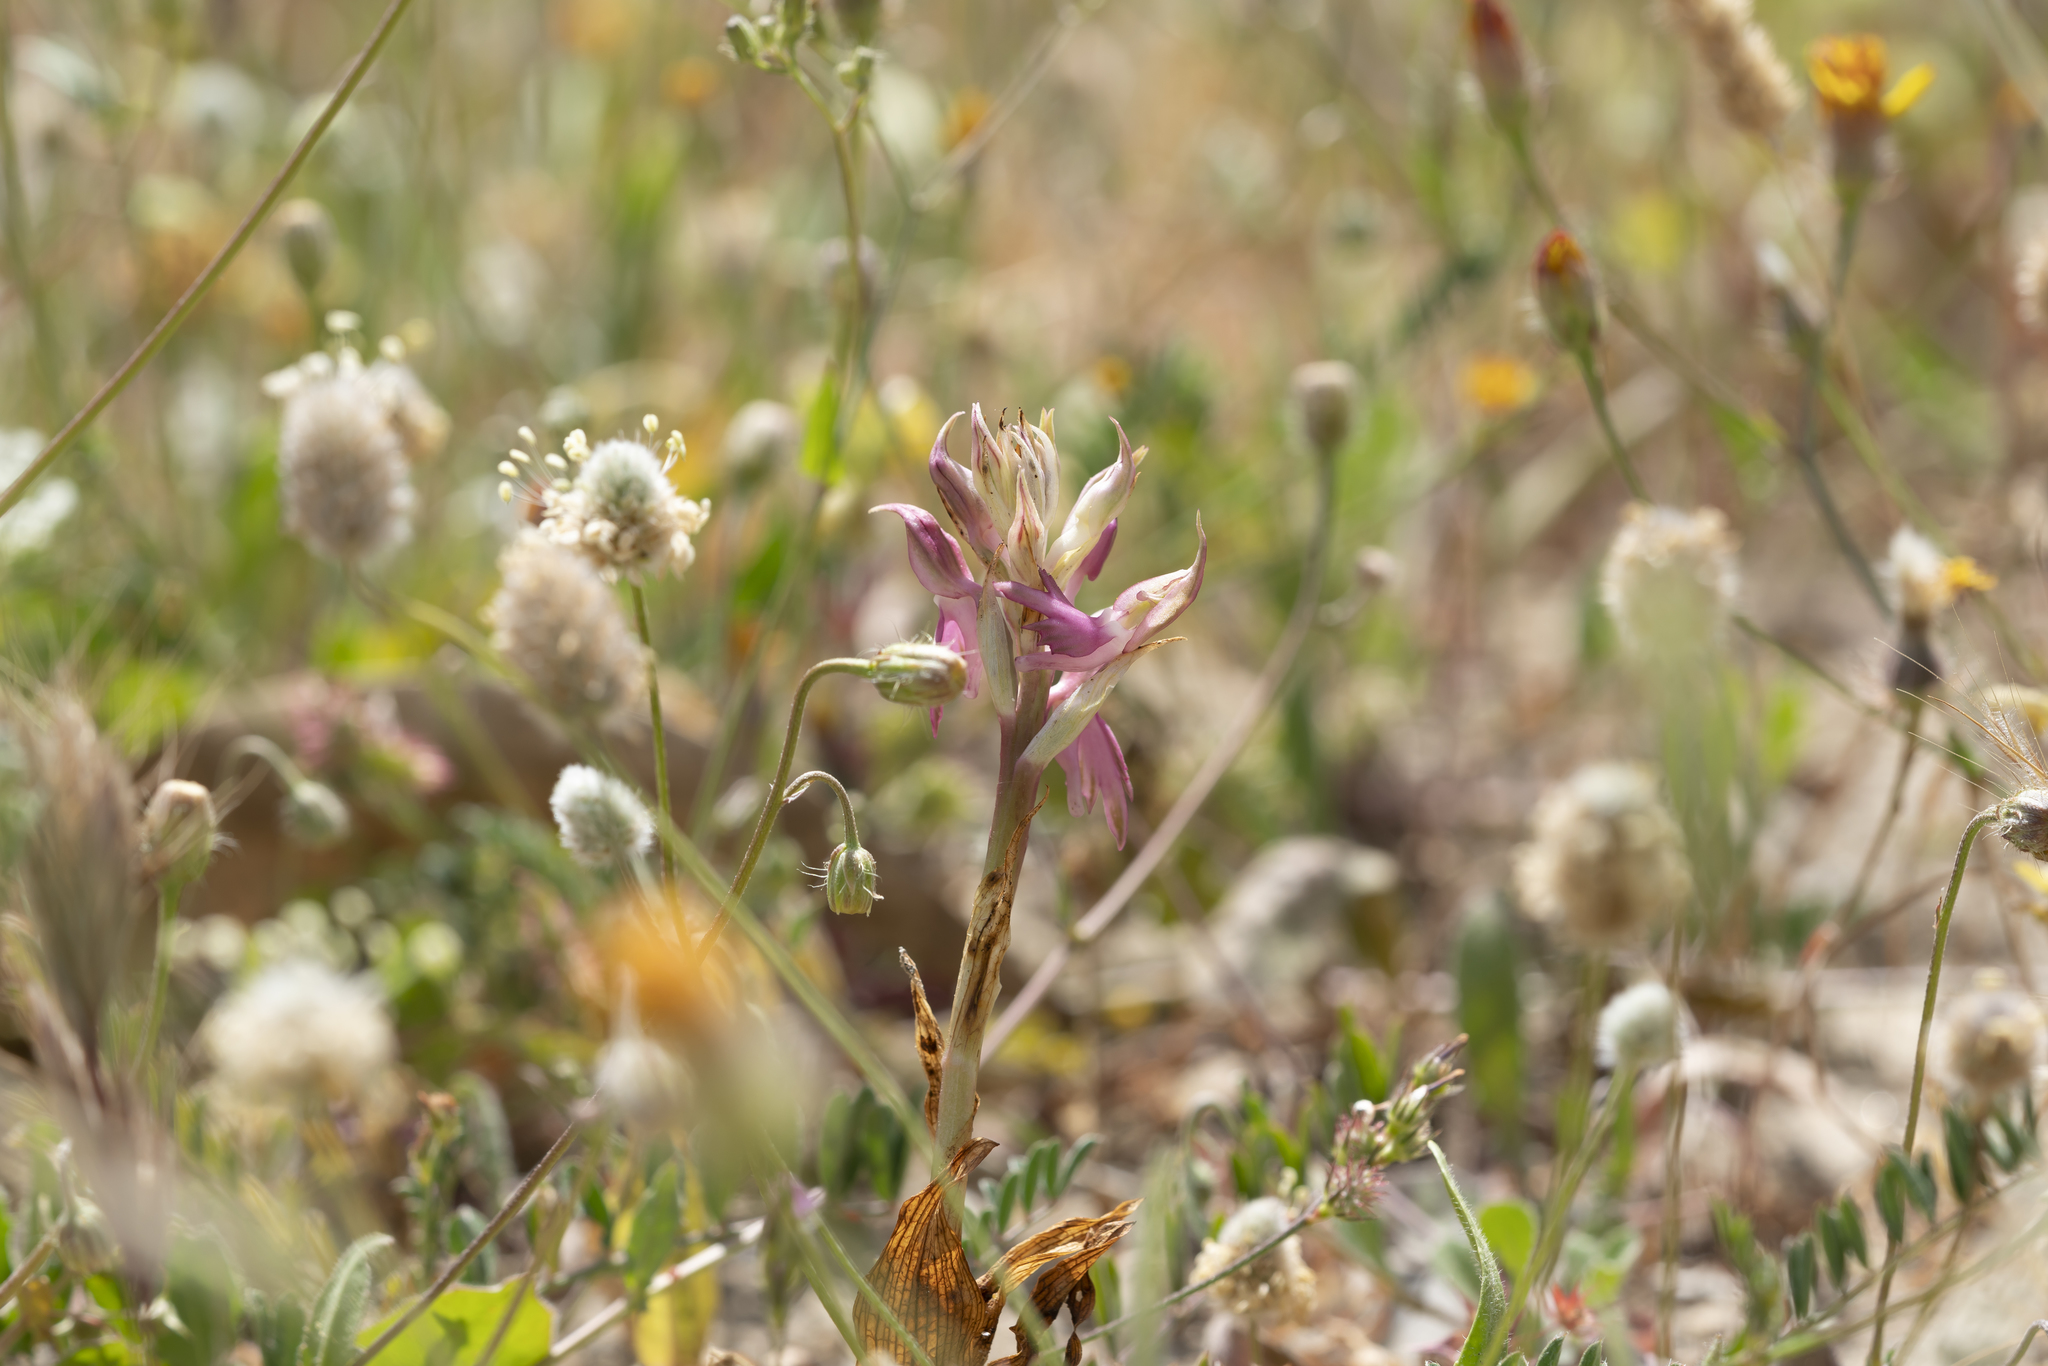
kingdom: Plantae
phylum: Tracheophyta
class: Liliopsida
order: Asparagales
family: Orchidaceae
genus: Anacamptis
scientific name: Anacamptis sancta
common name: Holy orchid
